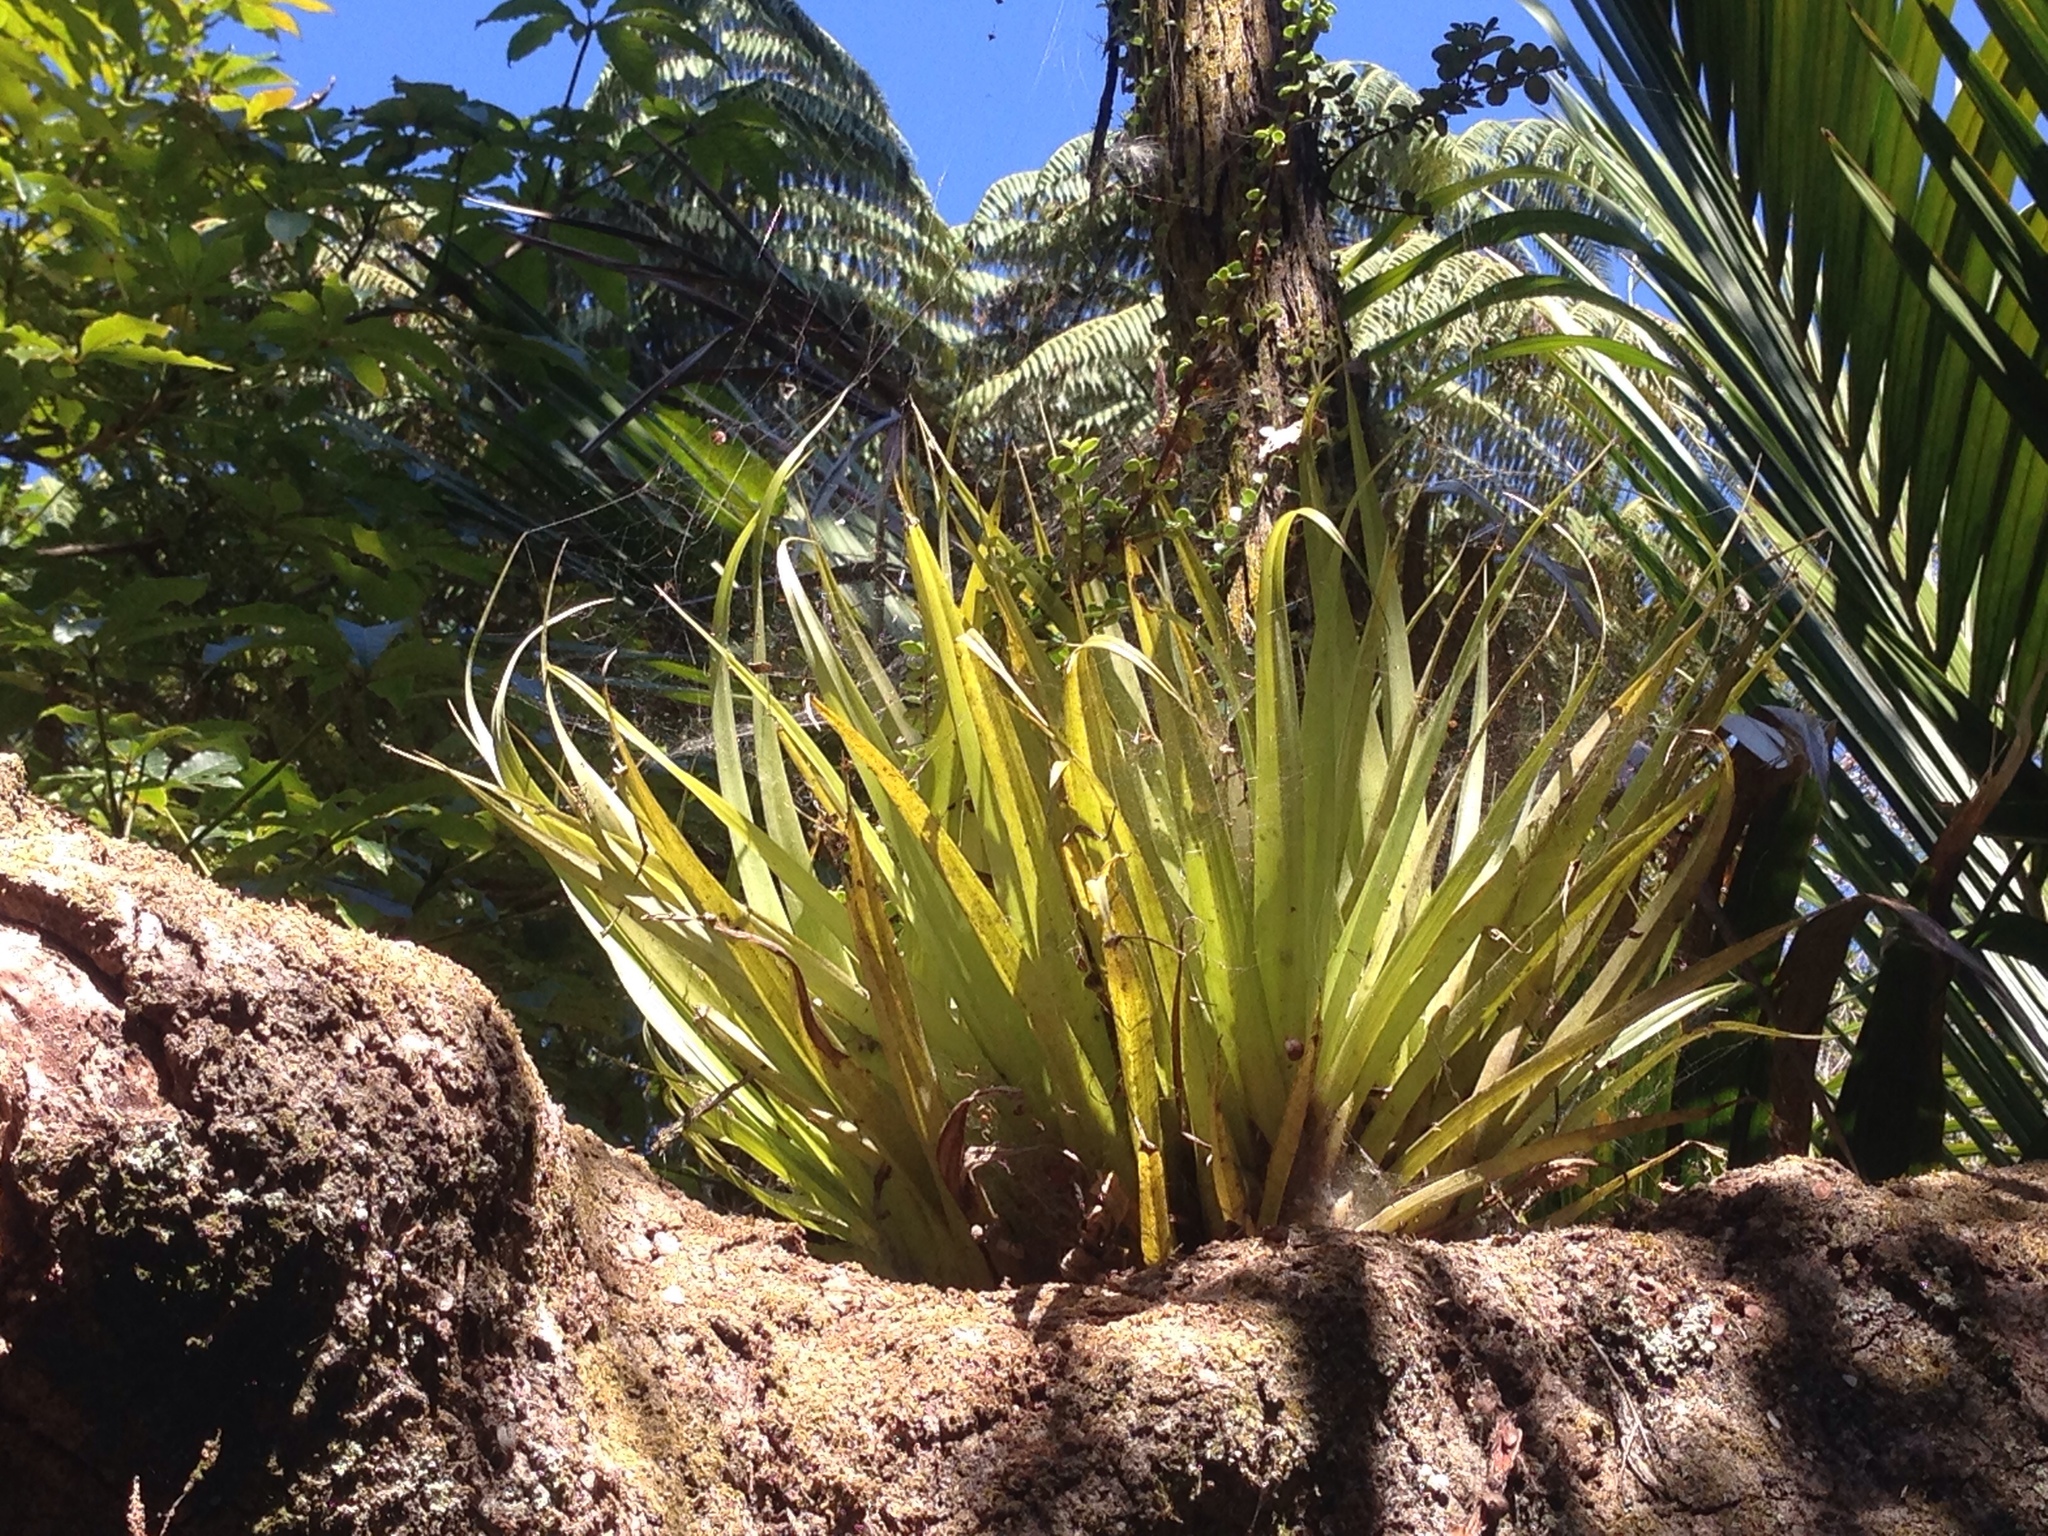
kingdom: Plantae
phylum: Tracheophyta
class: Liliopsida
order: Asparagales
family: Asteliaceae
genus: Astelia
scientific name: Astelia hastata
